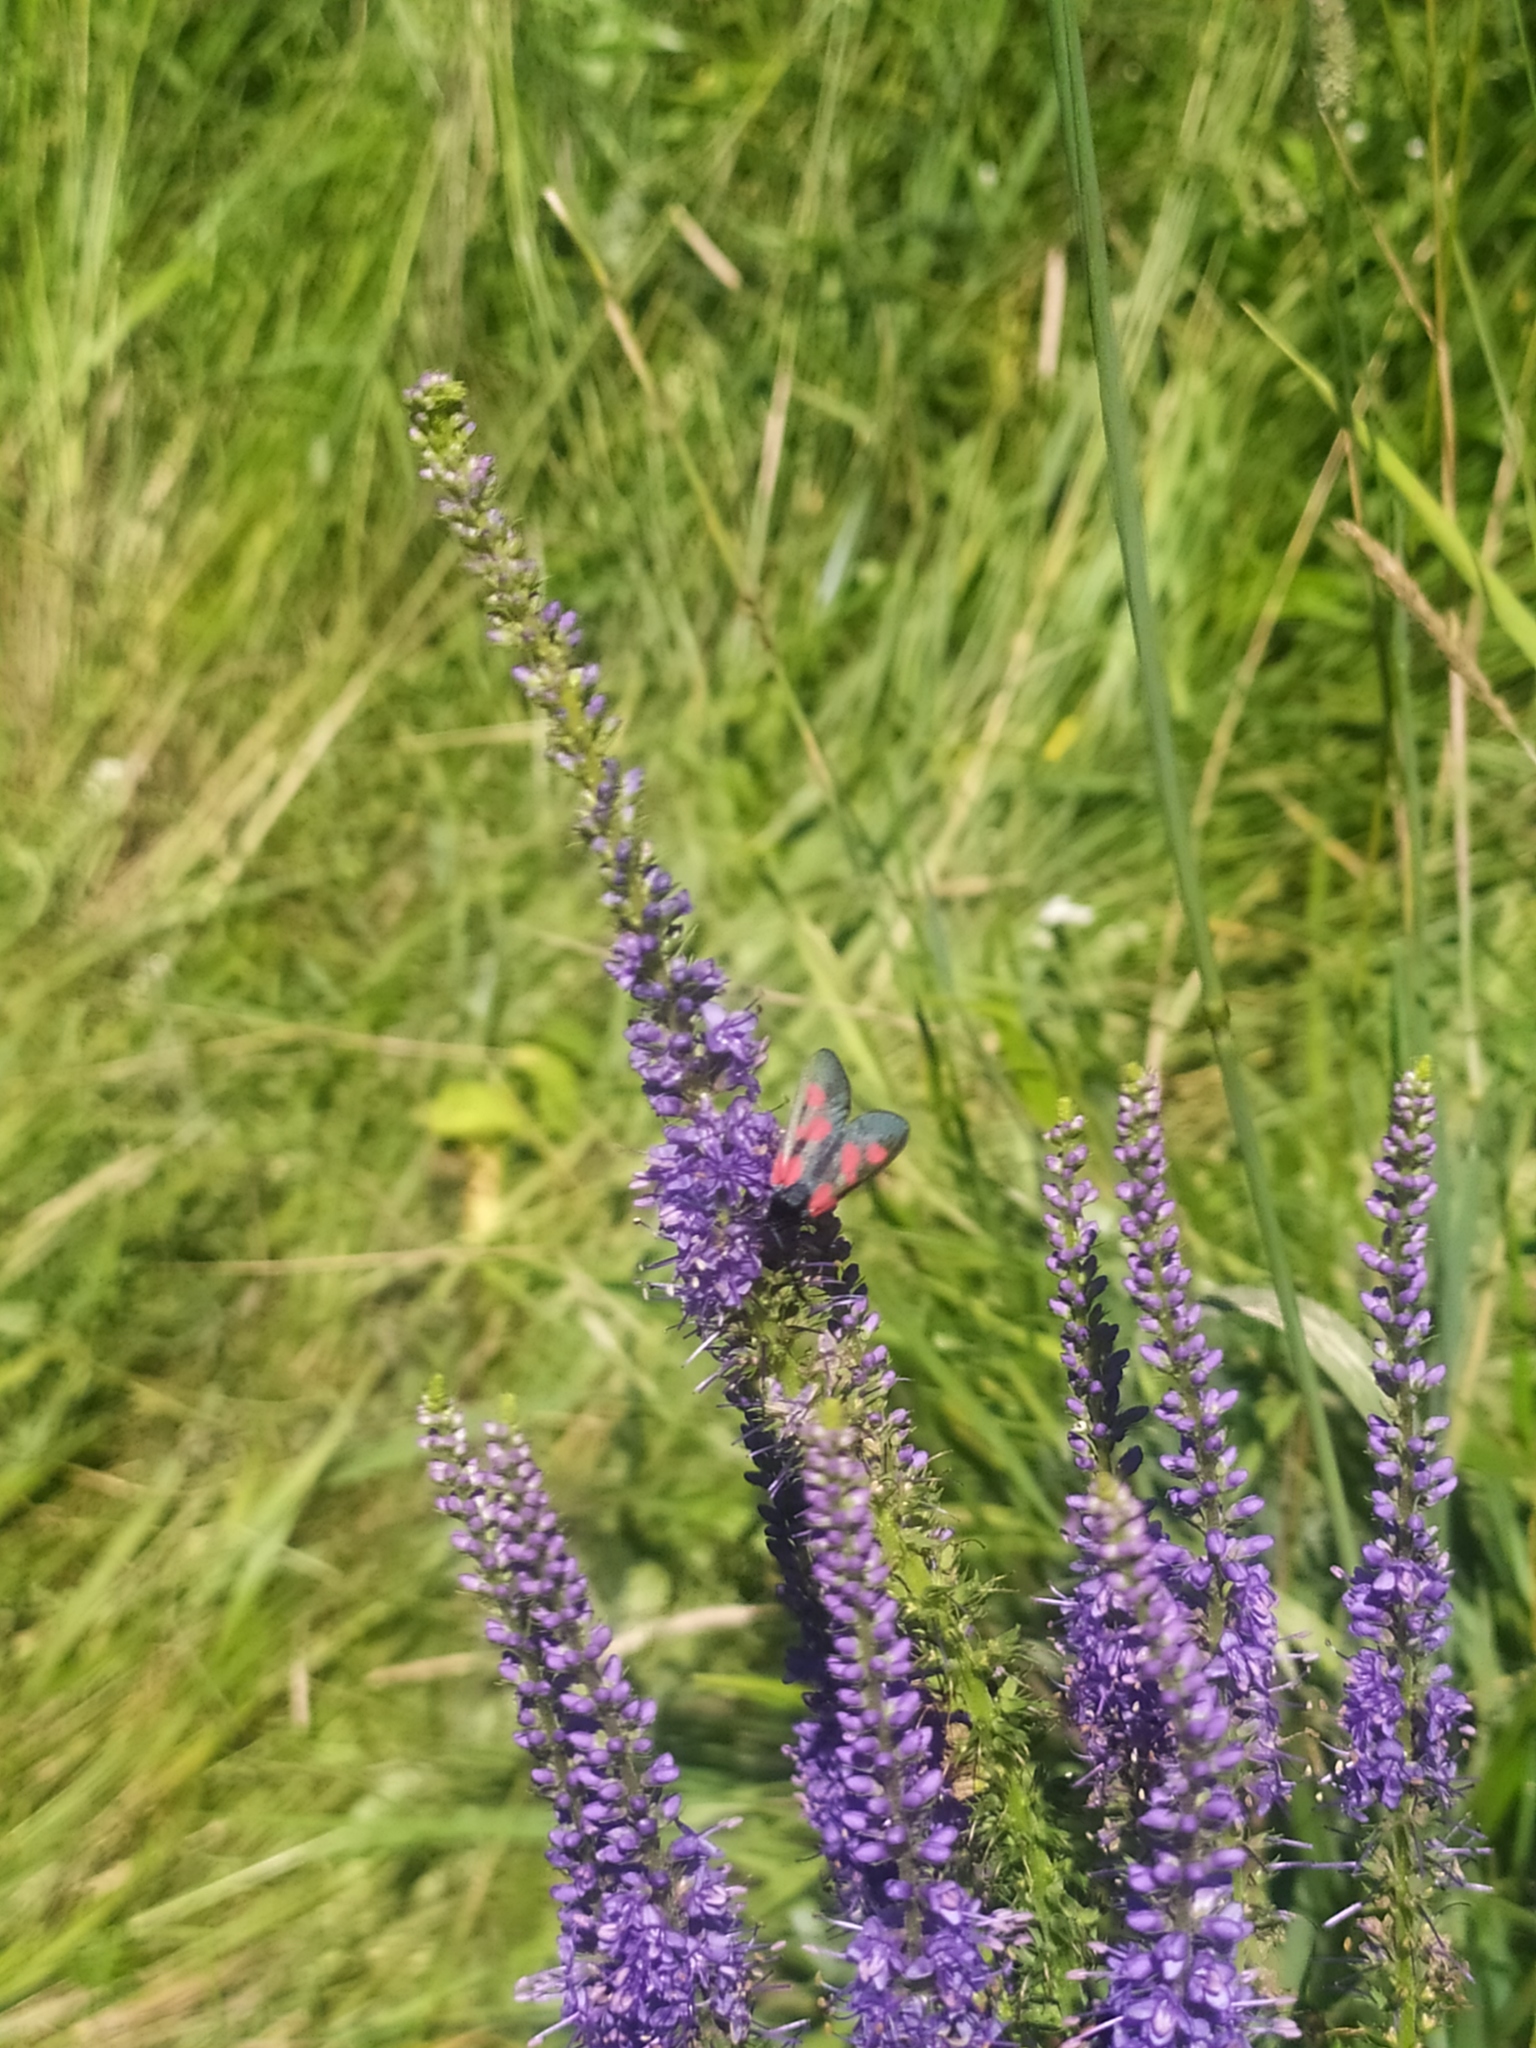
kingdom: Animalia
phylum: Arthropoda
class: Insecta
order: Lepidoptera
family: Zygaenidae
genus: Zygaena
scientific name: Zygaena viciae
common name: New forest burnet
